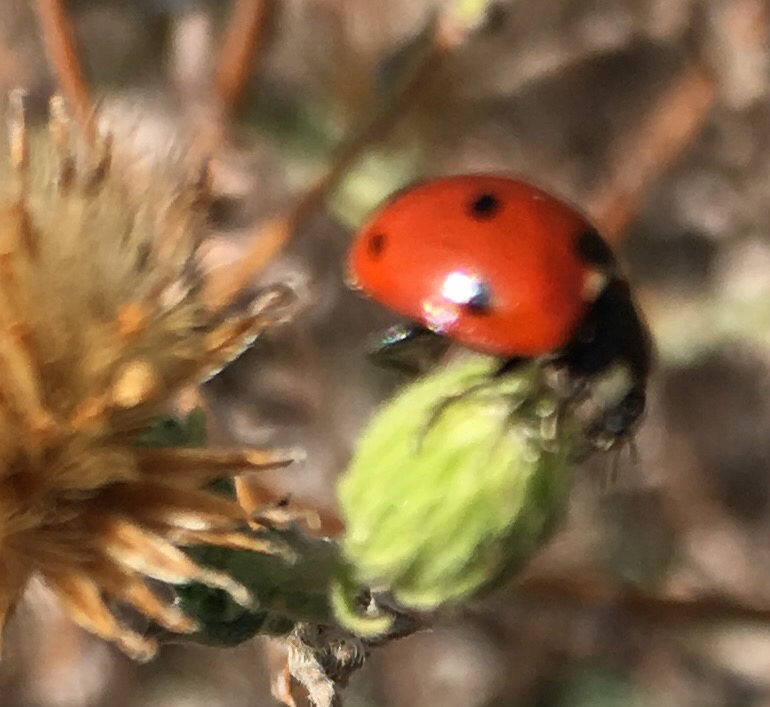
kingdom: Animalia
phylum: Arthropoda
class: Insecta
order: Coleoptera
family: Coccinellidae
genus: Coccinella
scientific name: Coccinella septempunctata
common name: Sevenspotted lady beetle
